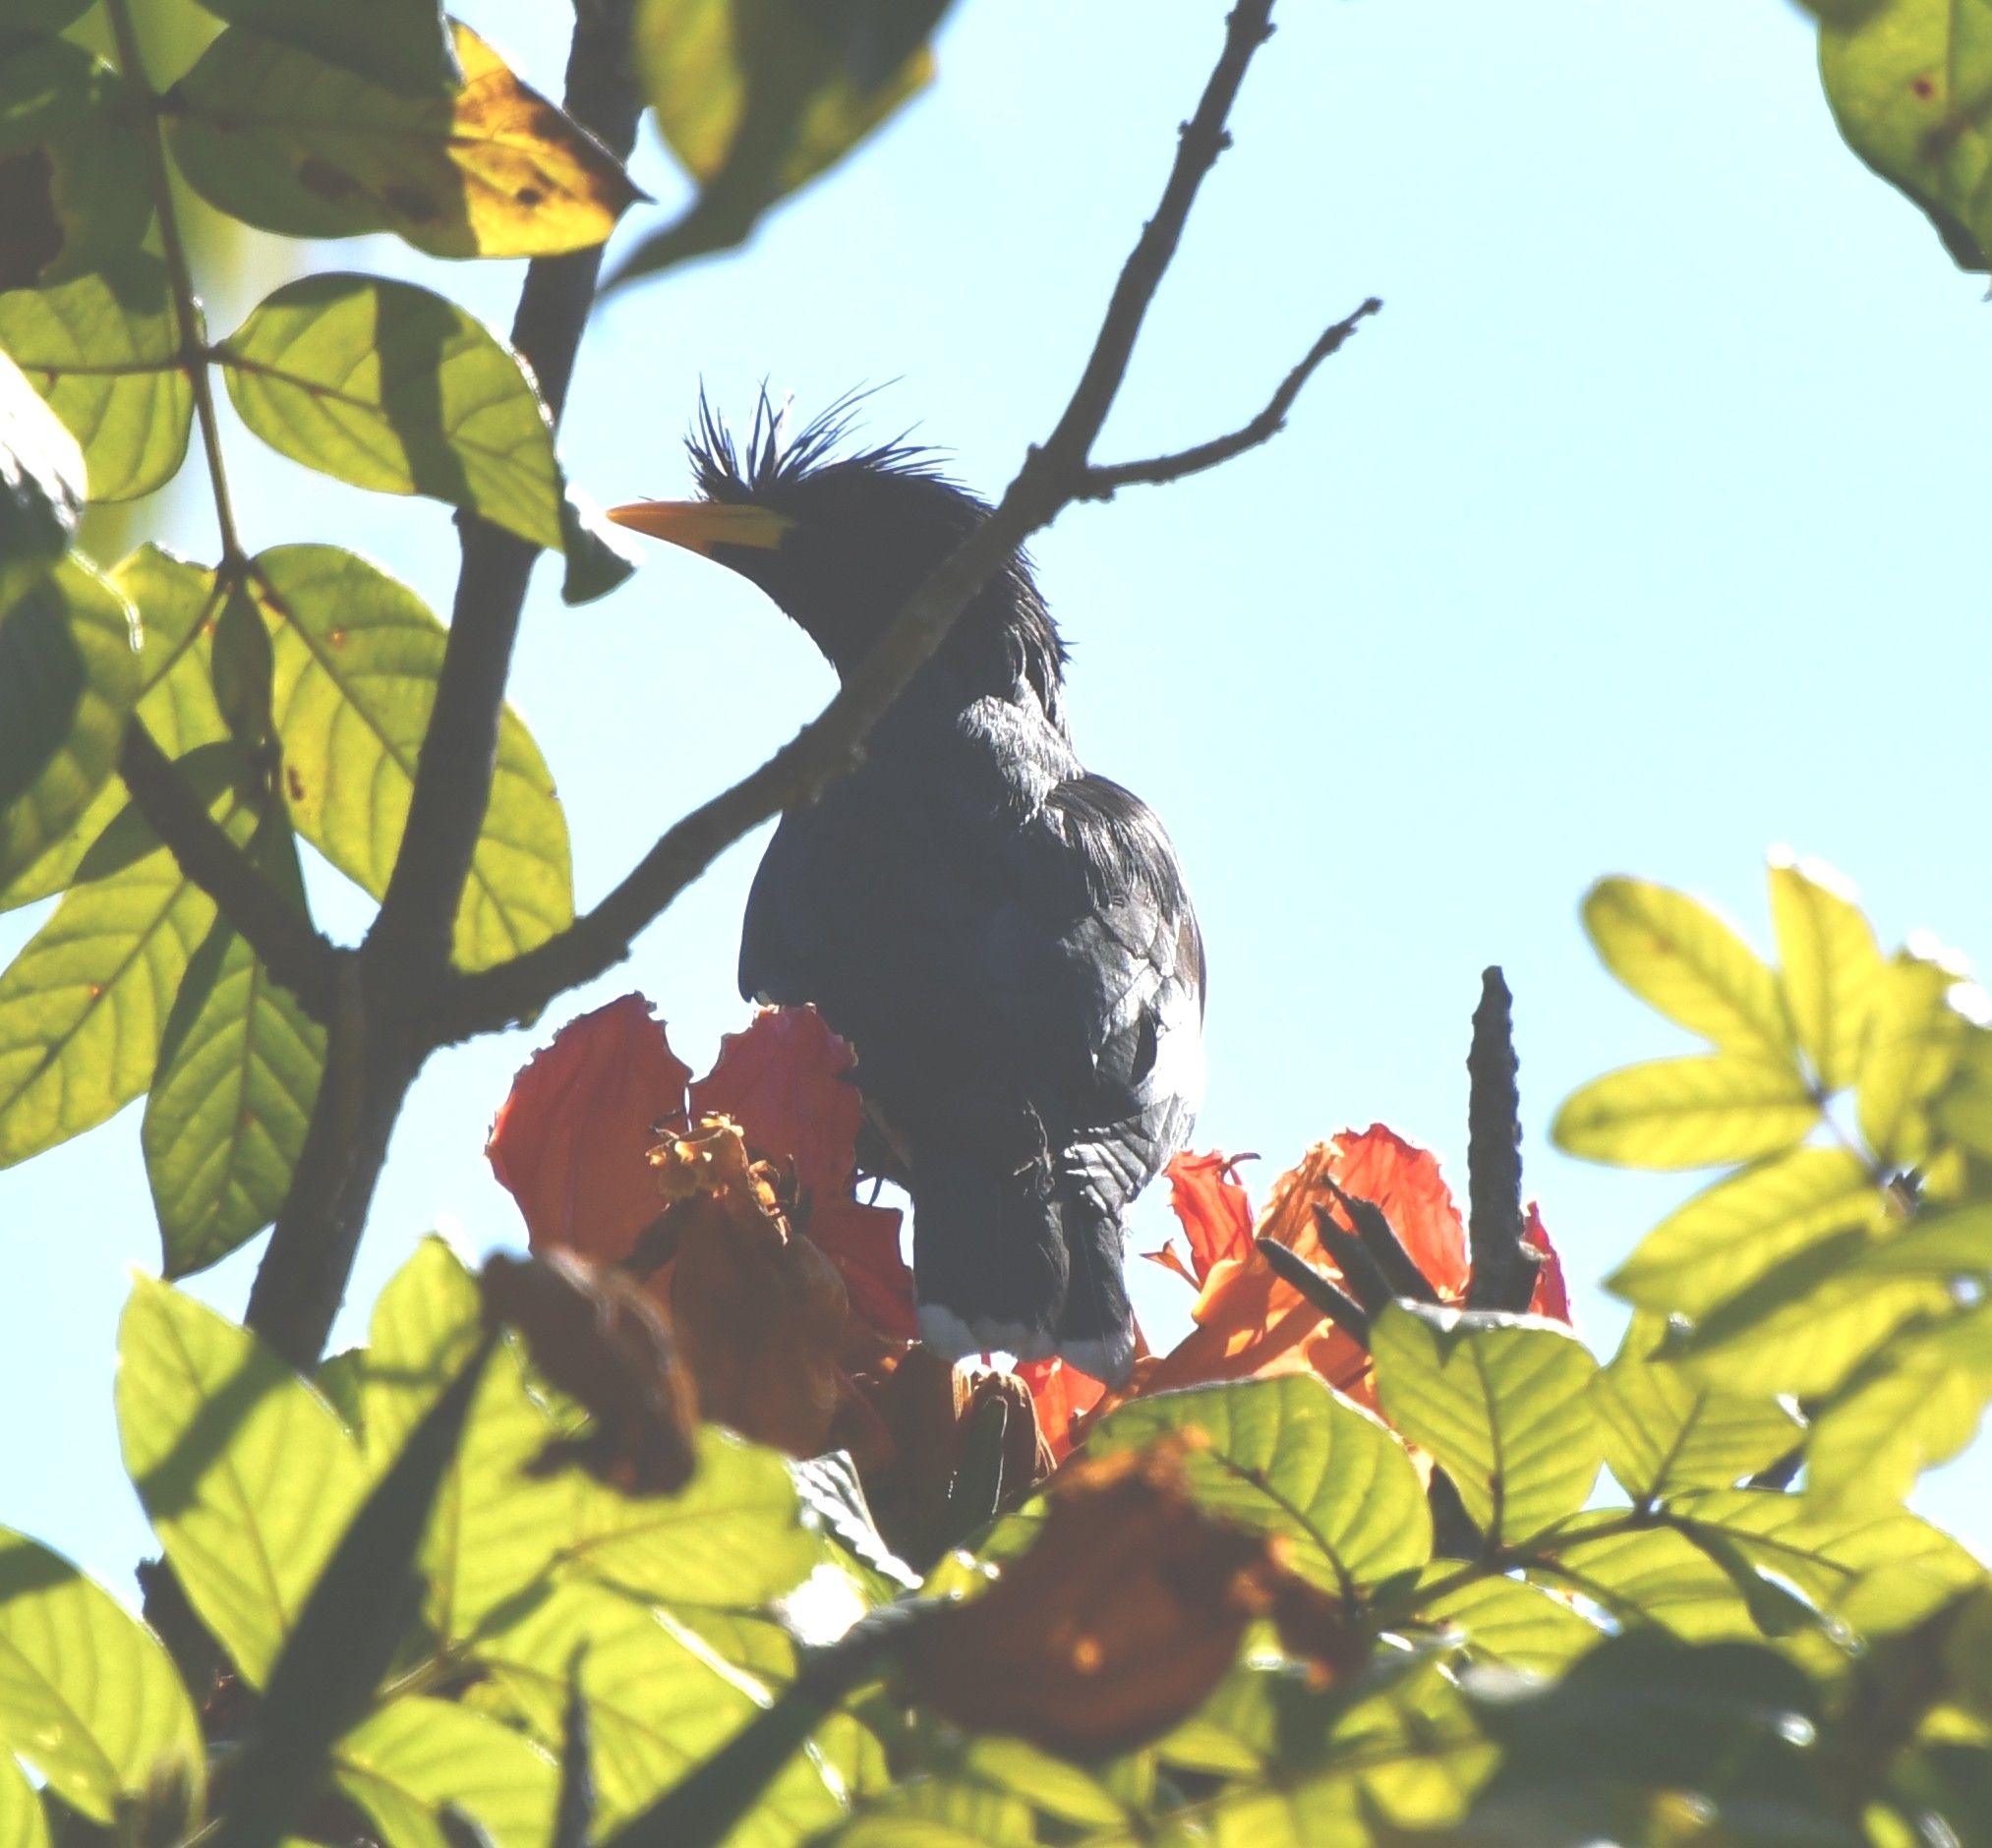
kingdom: Animalia
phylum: Chordata
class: Aves
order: Passeriformes
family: Sturnidae
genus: Acridotheres
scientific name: Acridotheres grandis
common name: Great myna
